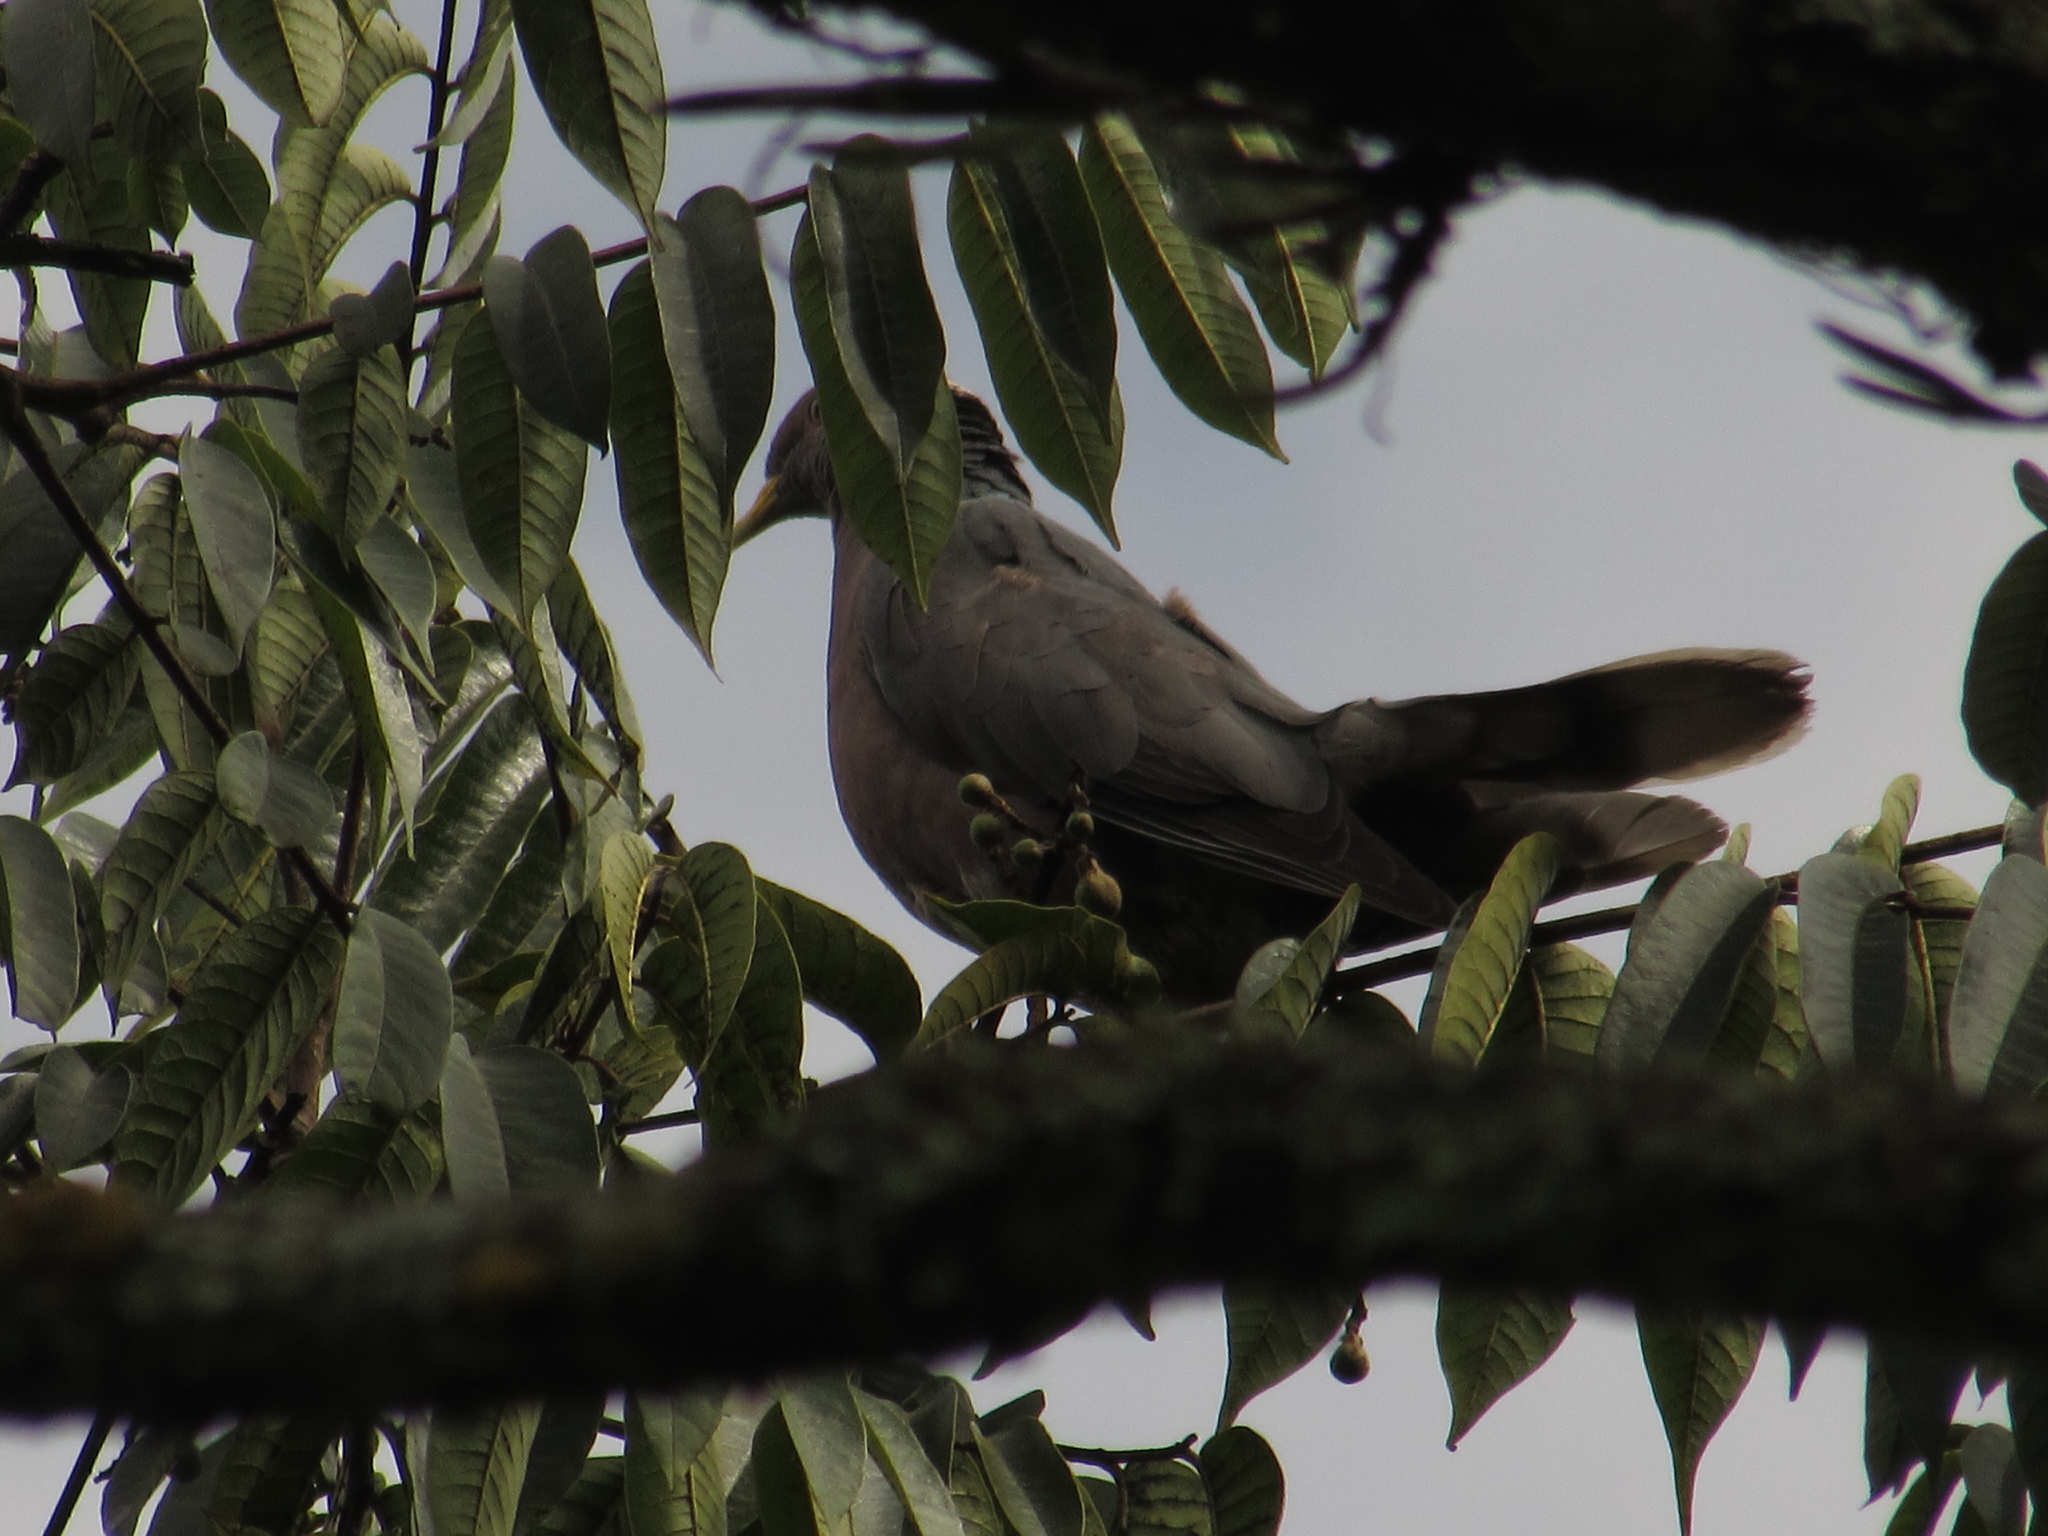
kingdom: Animalia
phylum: Chordata
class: Aves
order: Columbiformes
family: Columbidae
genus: Patagioenas
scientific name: Patagioenas fasciata
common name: Band-tailed pigeon
